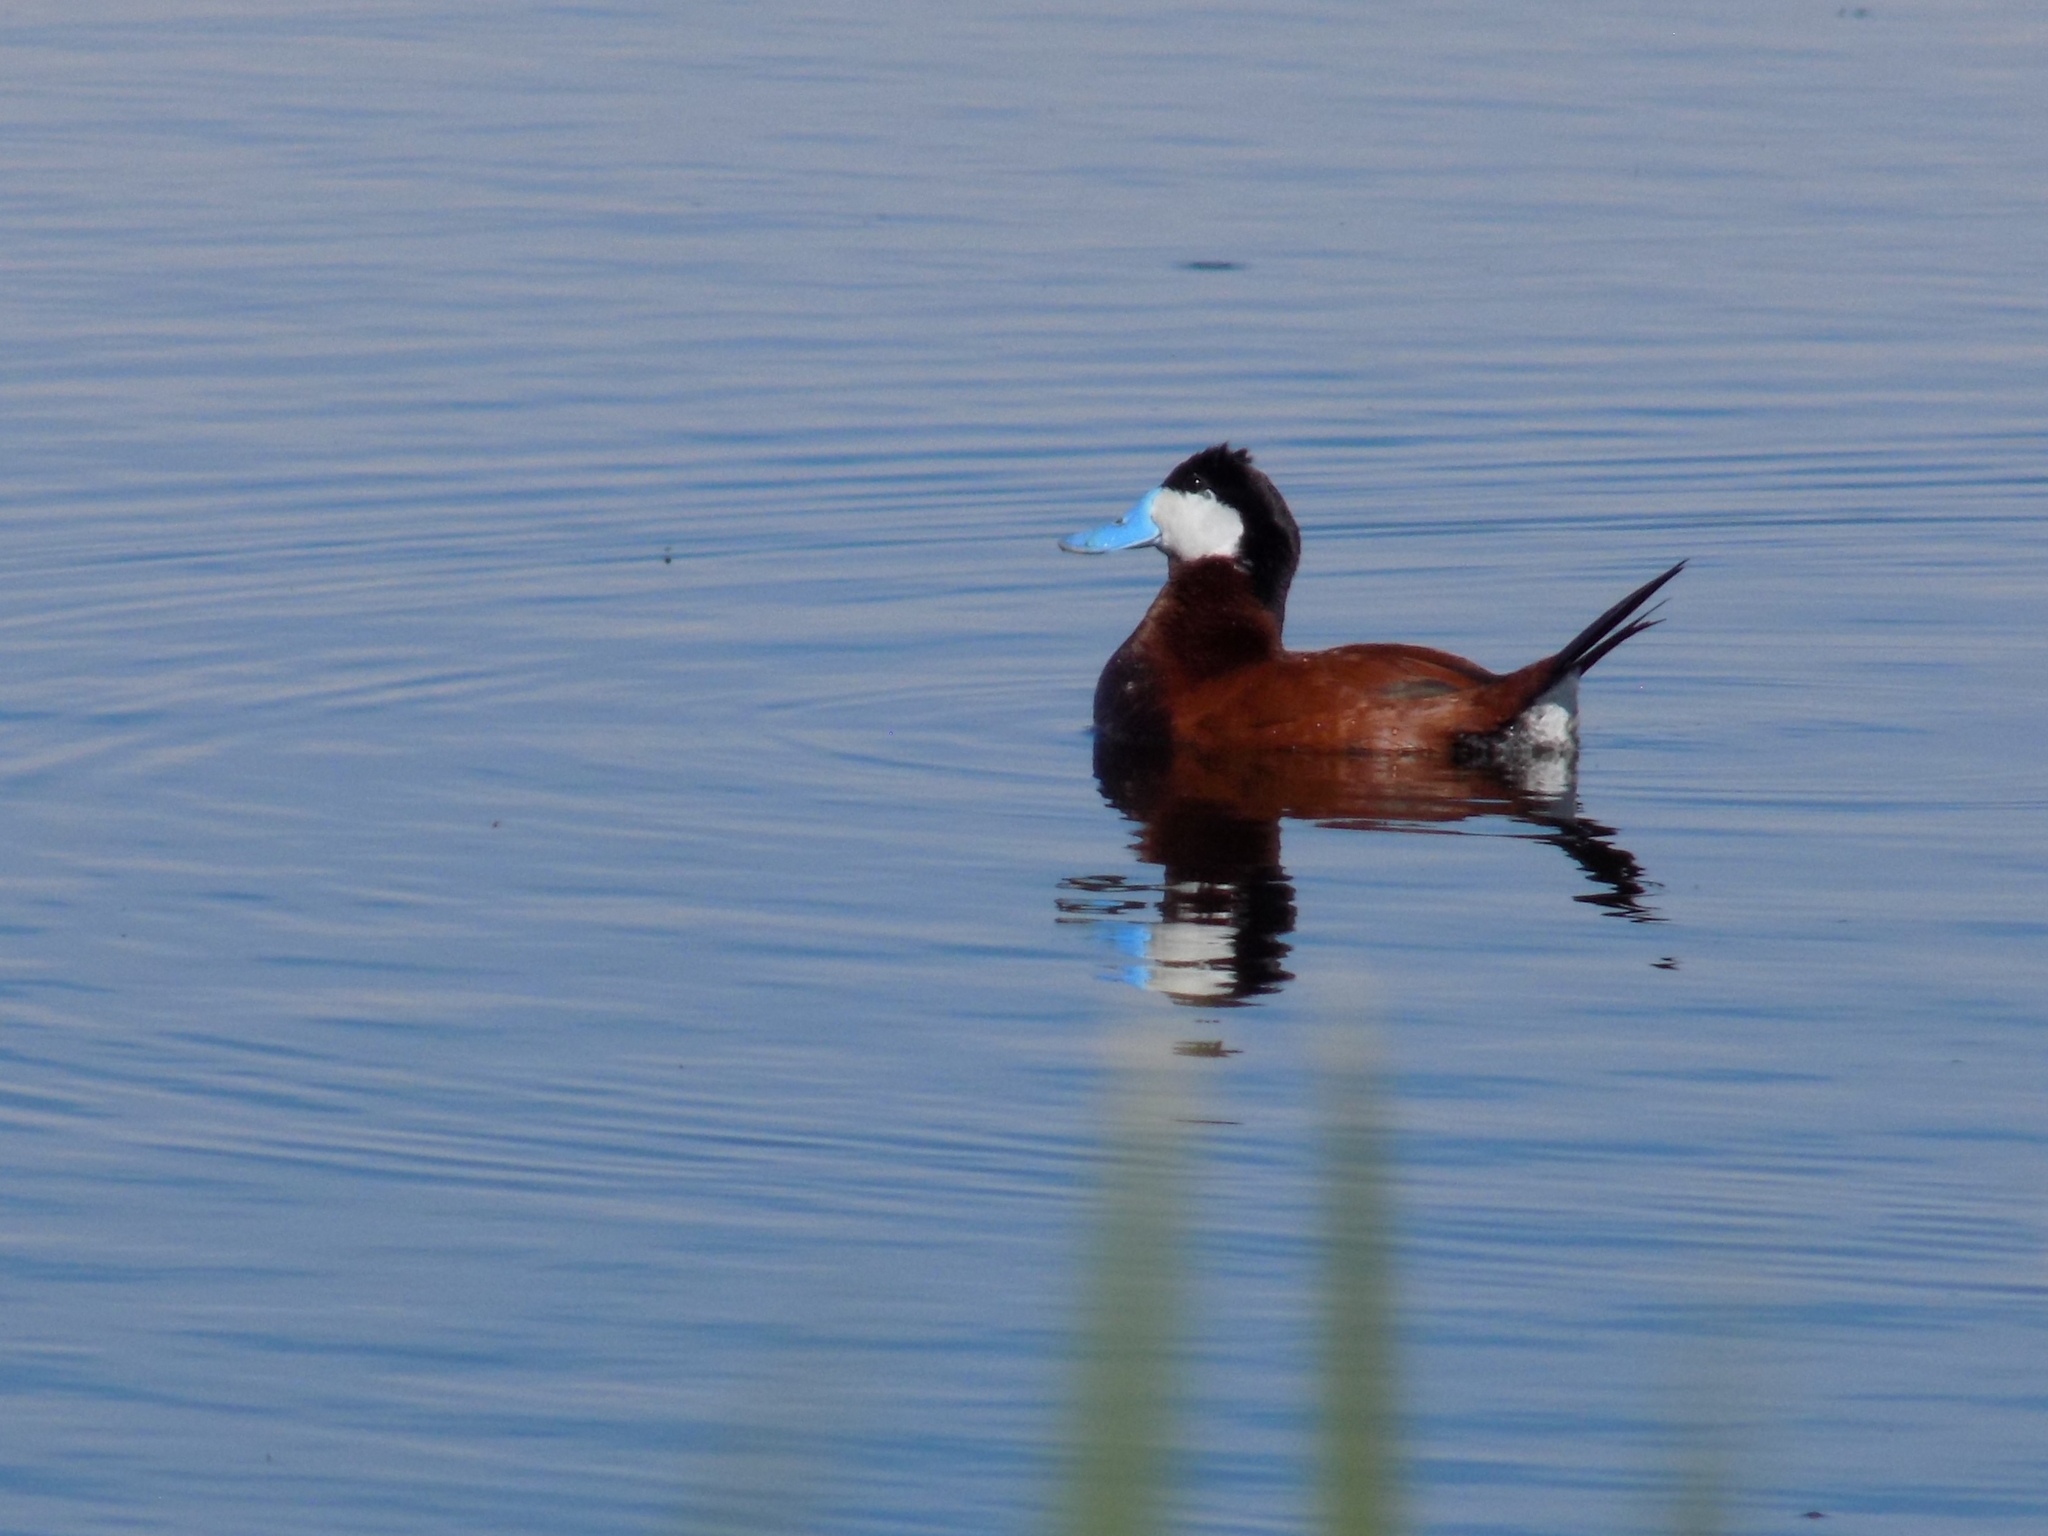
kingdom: Animalia
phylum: Chordata
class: Aves
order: Anseriformes
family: Anatidae
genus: Oxyura
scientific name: Oxyura jamaicensis
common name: Ruddy duck
